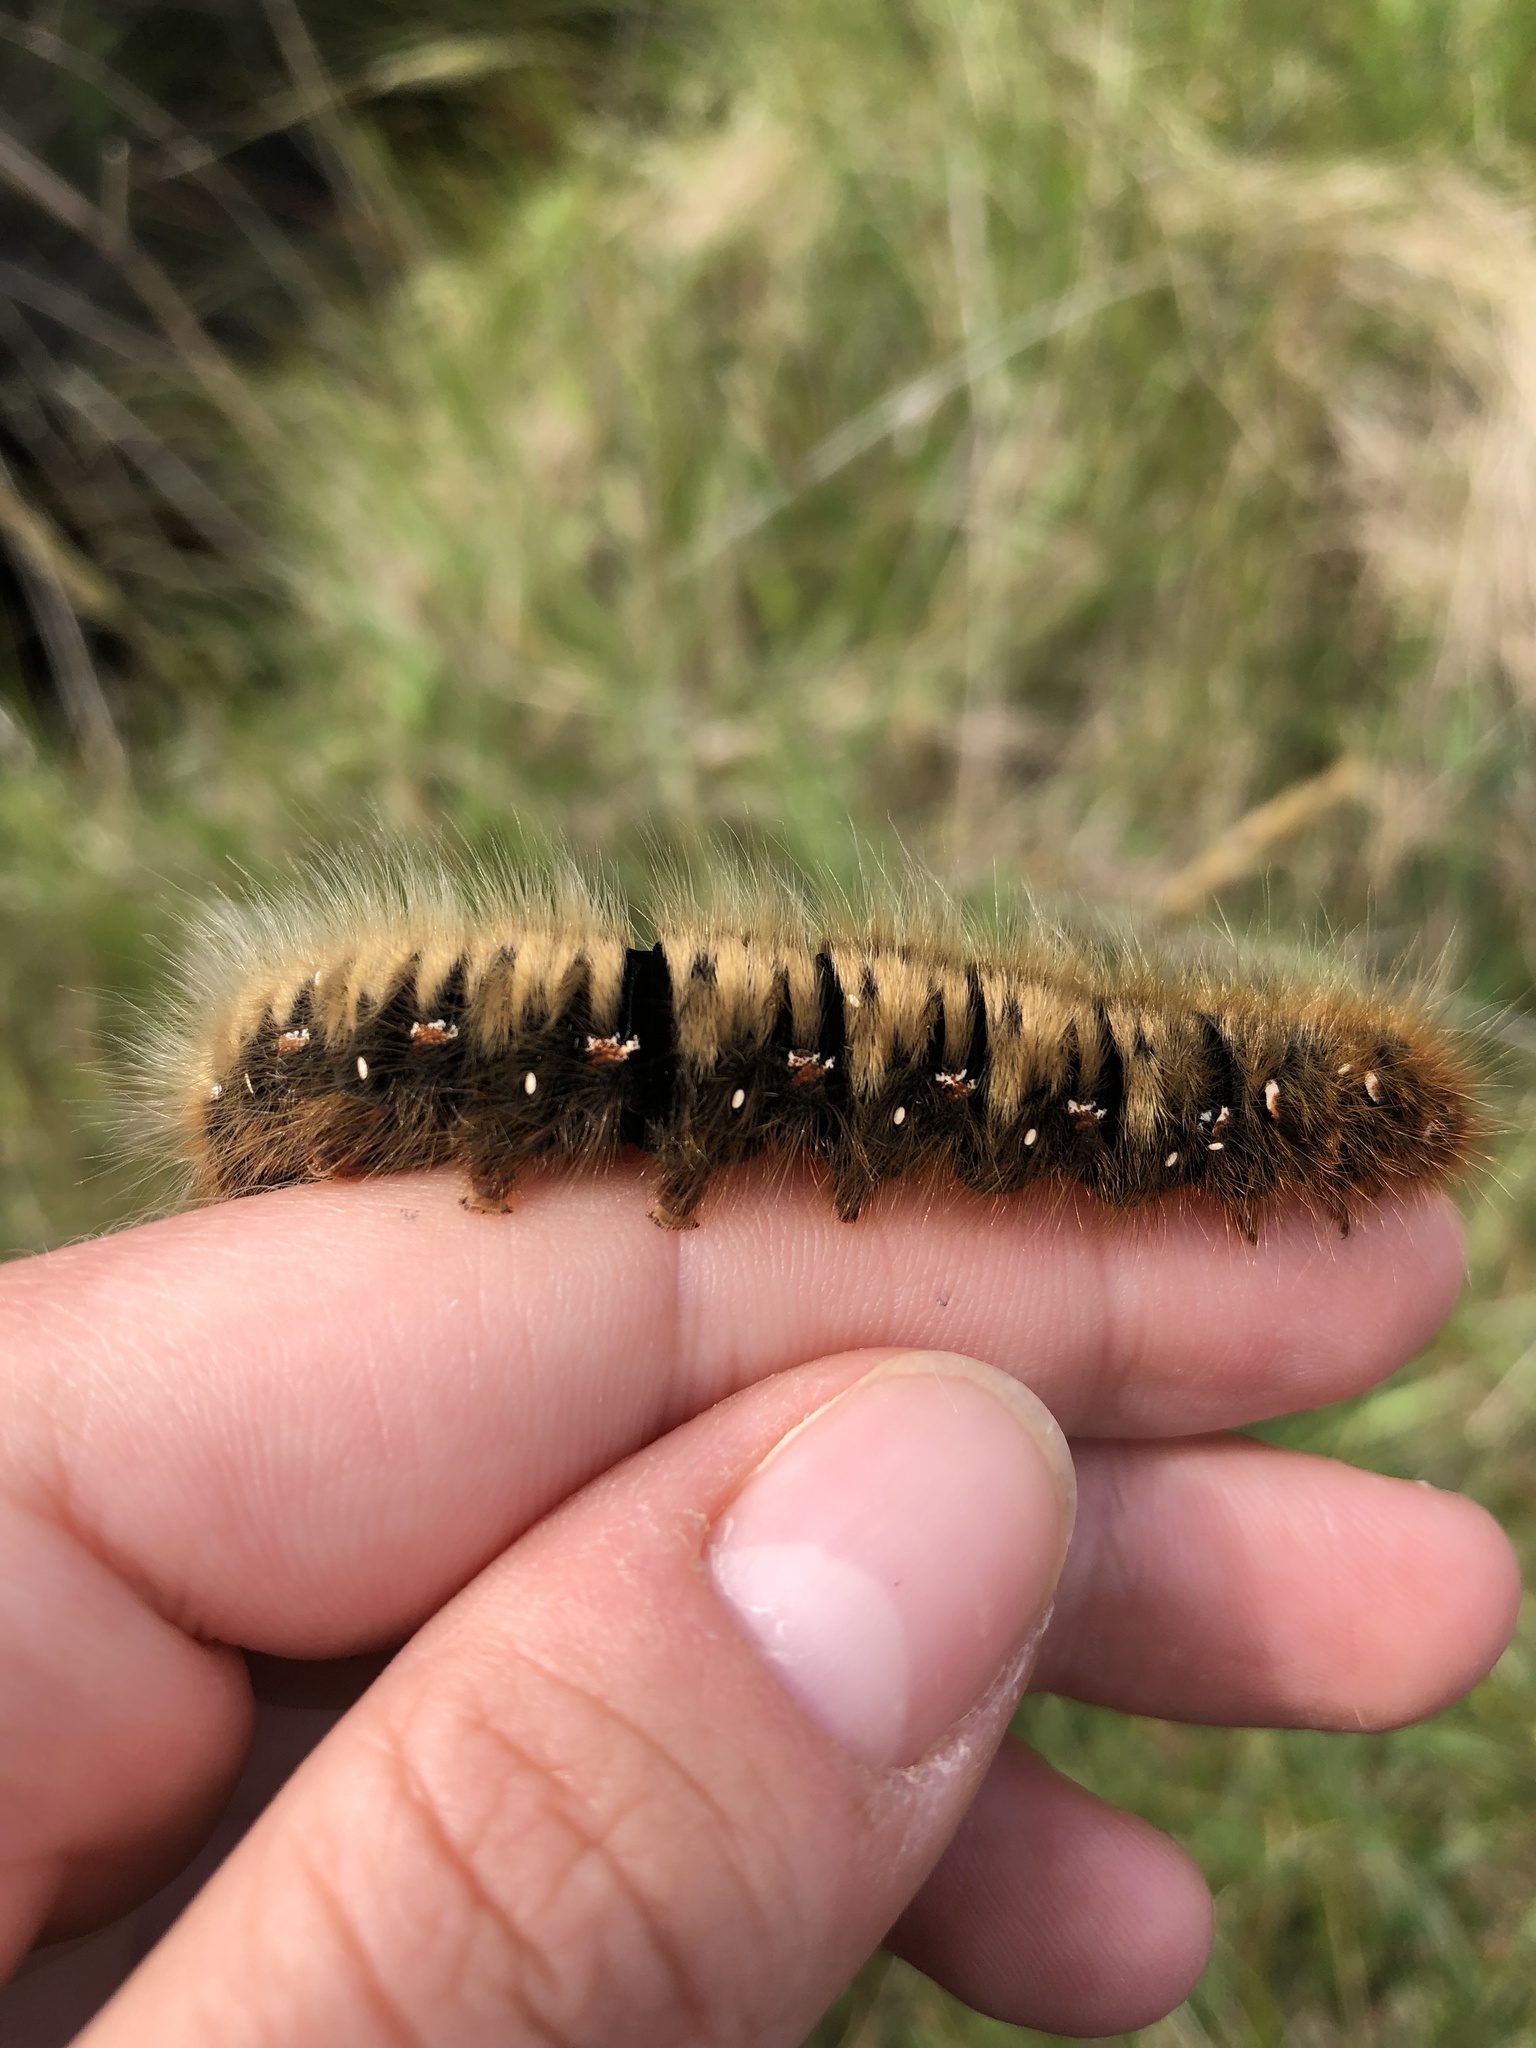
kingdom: Animalia
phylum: Arthropoda
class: Insecta
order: Lepidoptera
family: Lasiocampidae
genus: Lasiocampa
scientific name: Lasiocampa quercus
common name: Oak eggar
